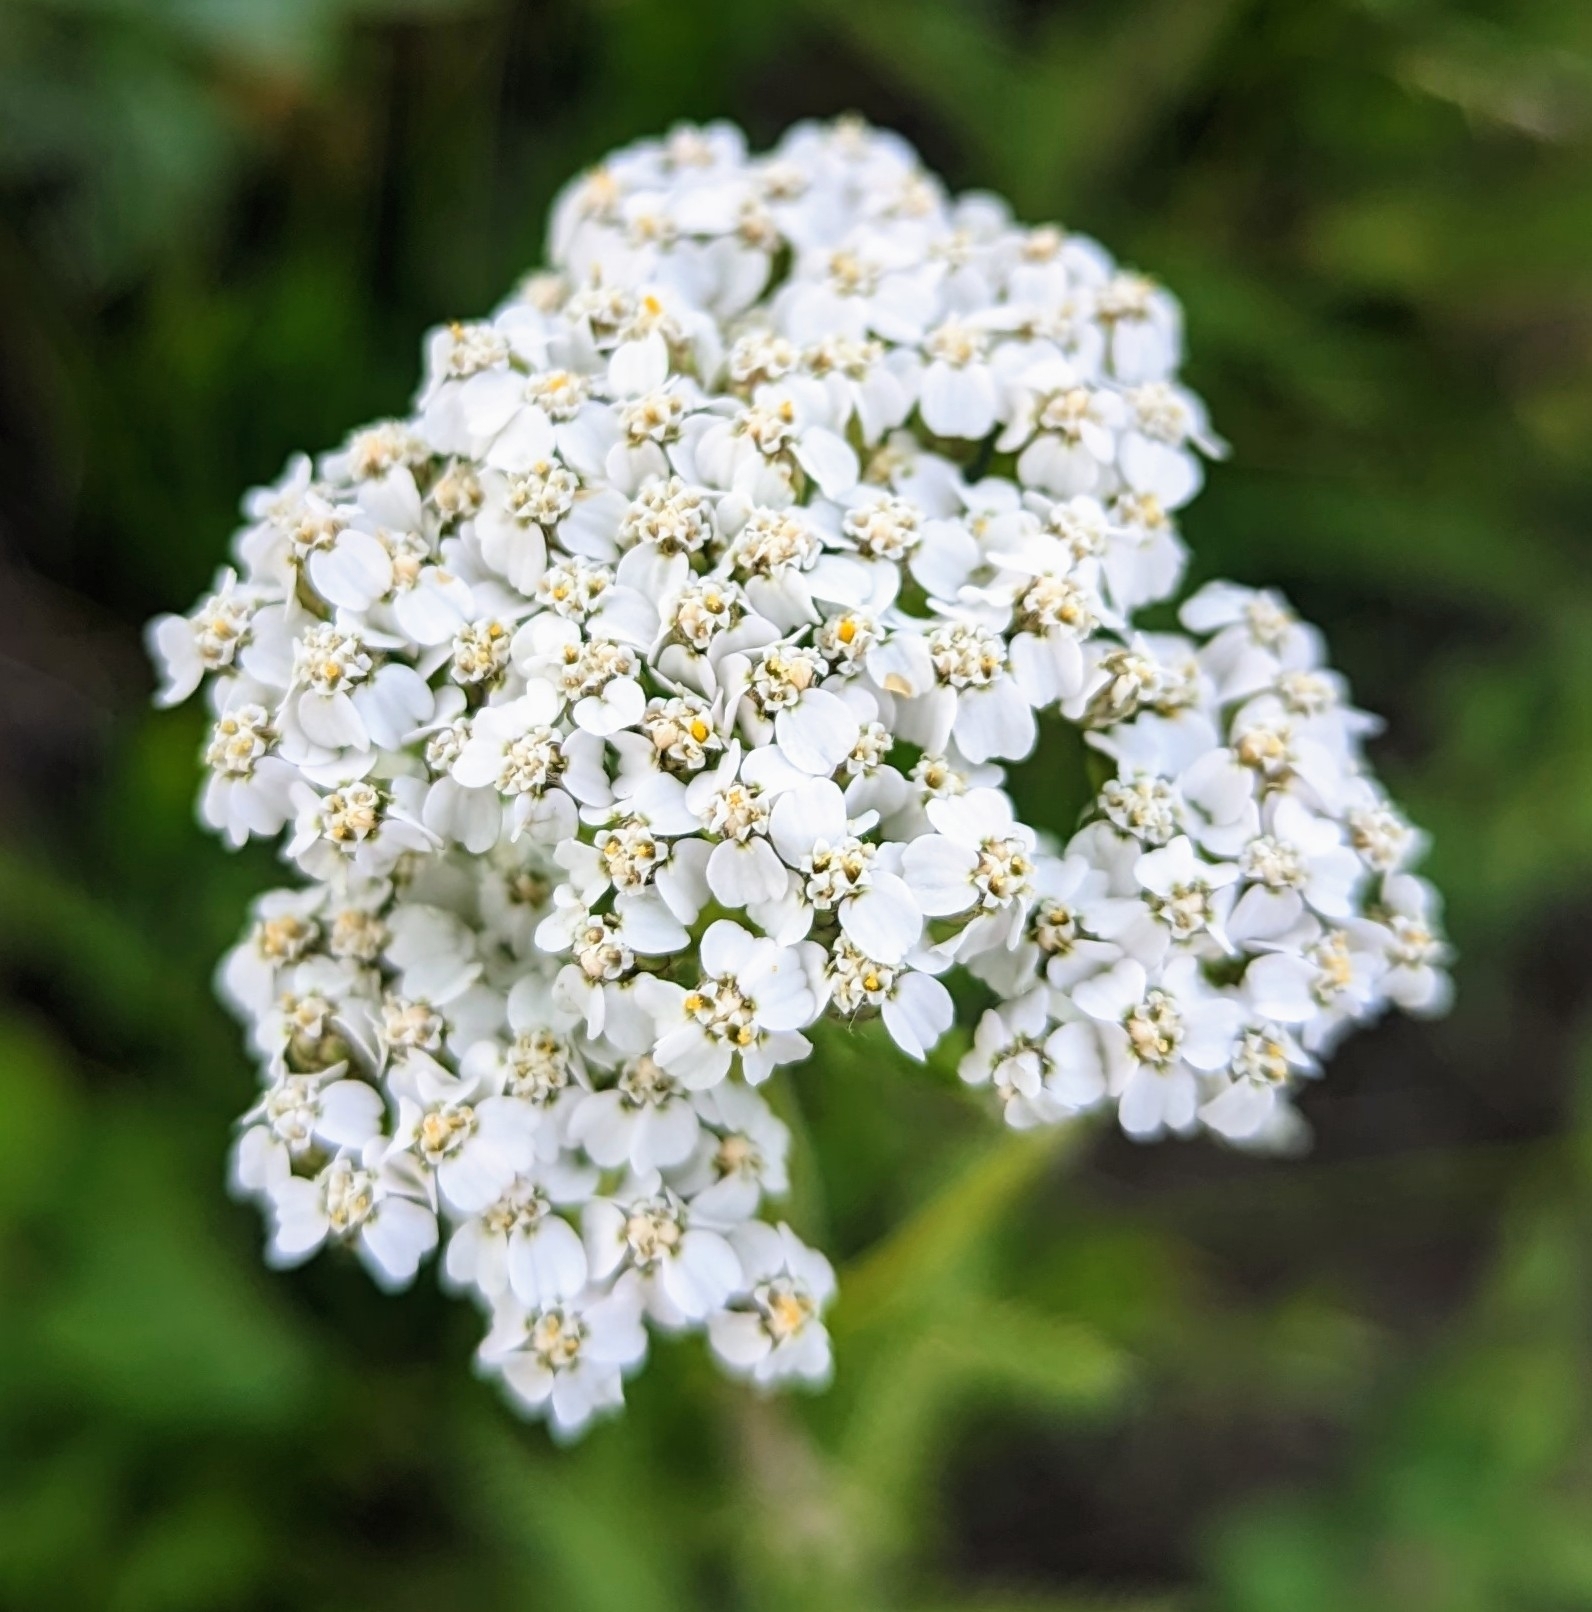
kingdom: Plantae
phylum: Tracheophyta
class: Magnoliopsida
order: Asterales
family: Asteraceae
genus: Achillea
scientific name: Achillea millefolium
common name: Yarrow
